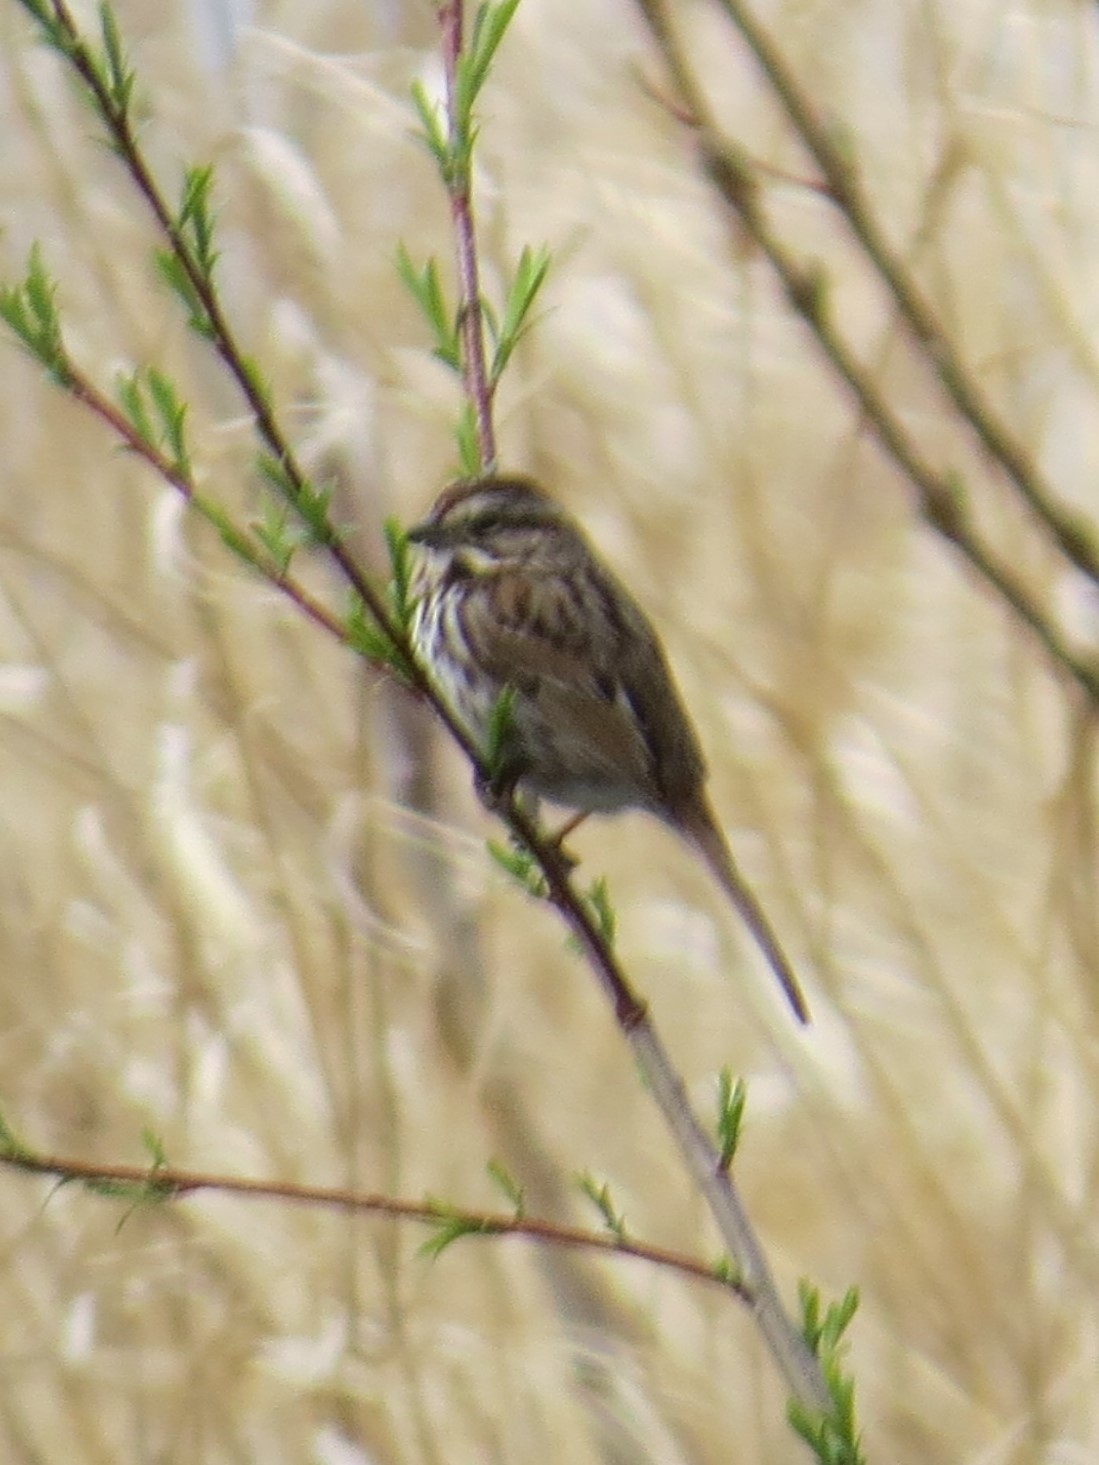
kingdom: Animalia
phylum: Chordata
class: Aves
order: Passeriformes
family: Passerellidae
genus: Melospiza
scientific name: Melospiza melodia
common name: Song sparrow
